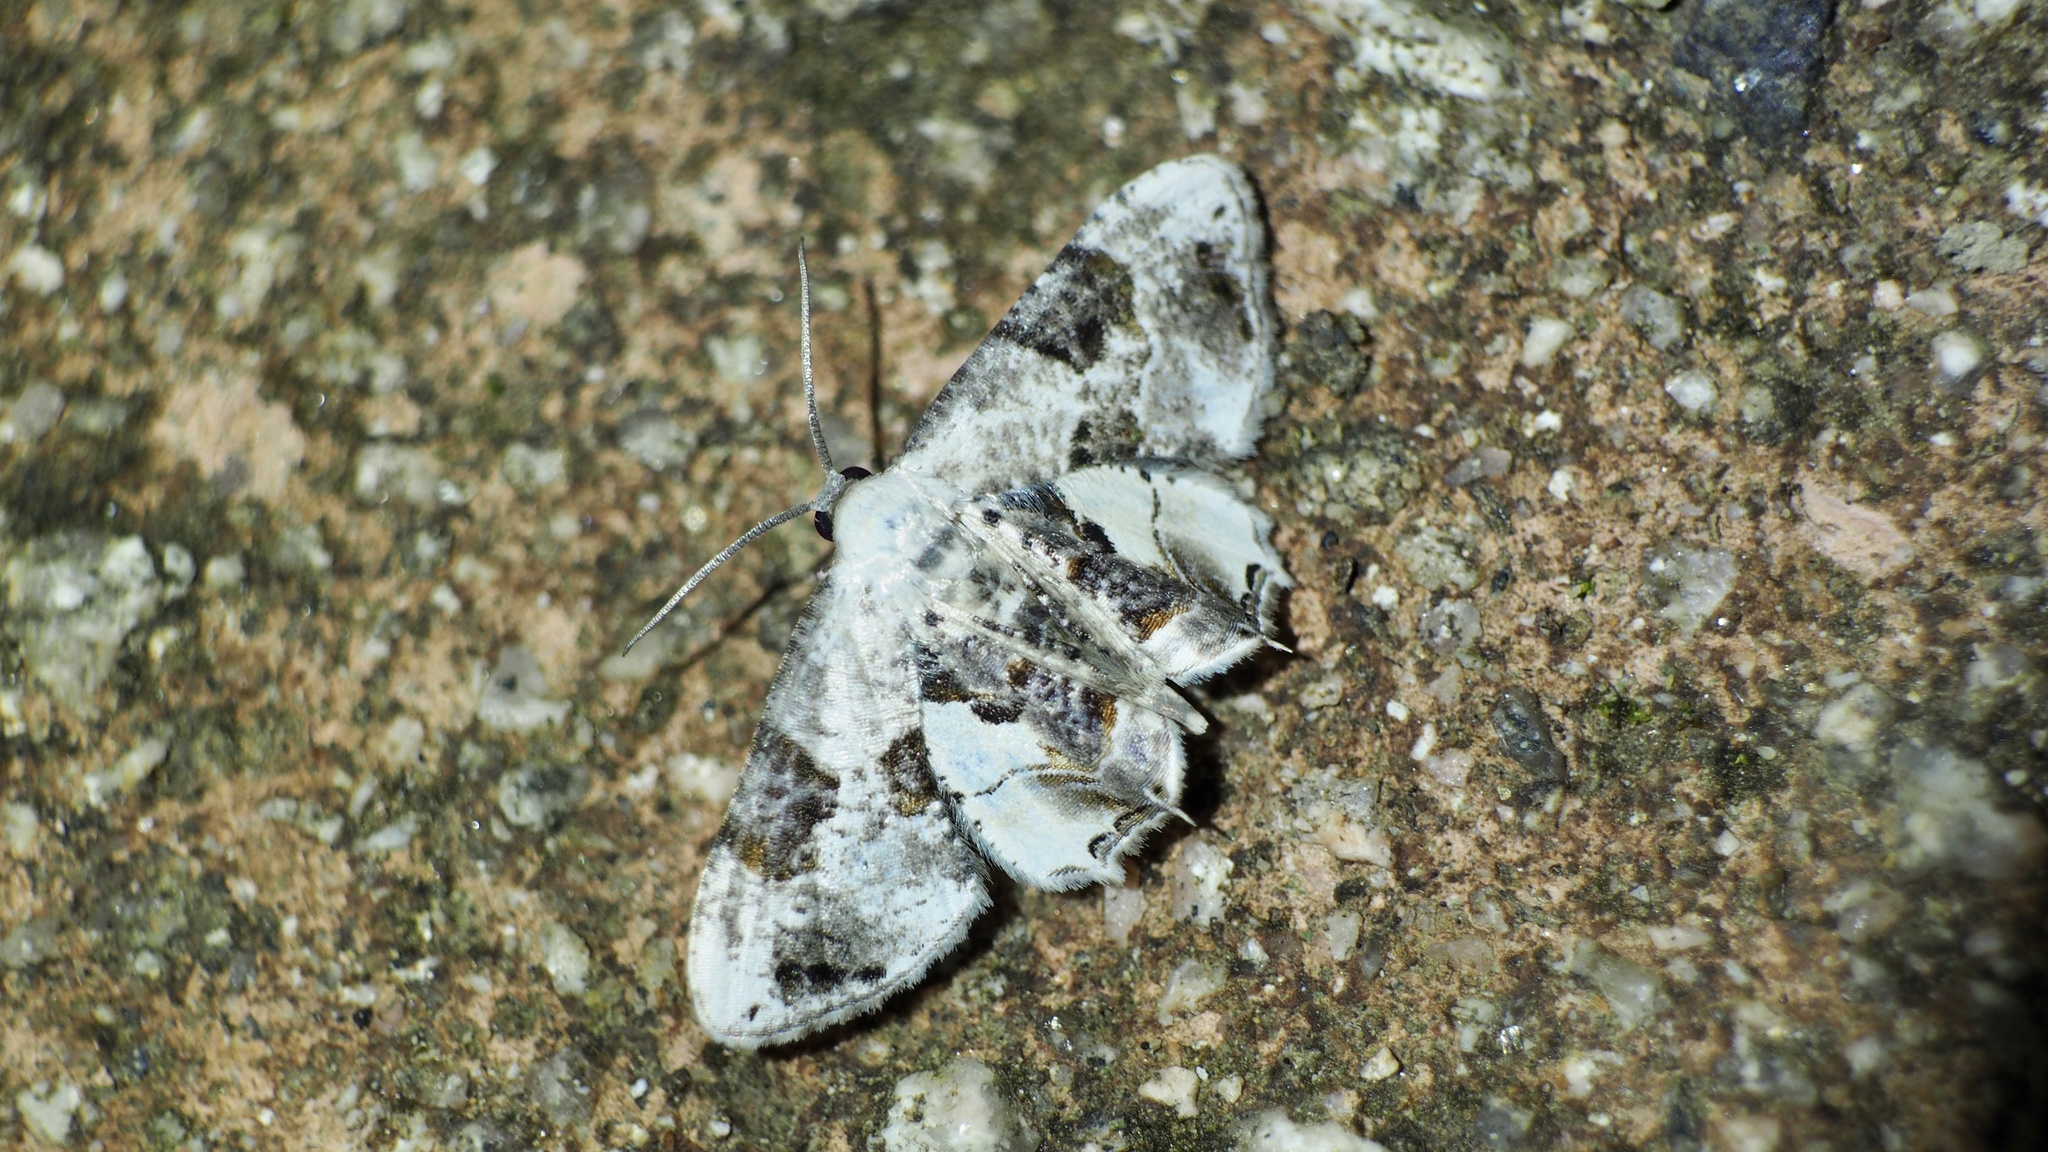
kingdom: Animalia
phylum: Arthropoda
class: Insecta
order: Lepidoptera
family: Uraniidae
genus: Epiplema
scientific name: Epiplema plagifera
